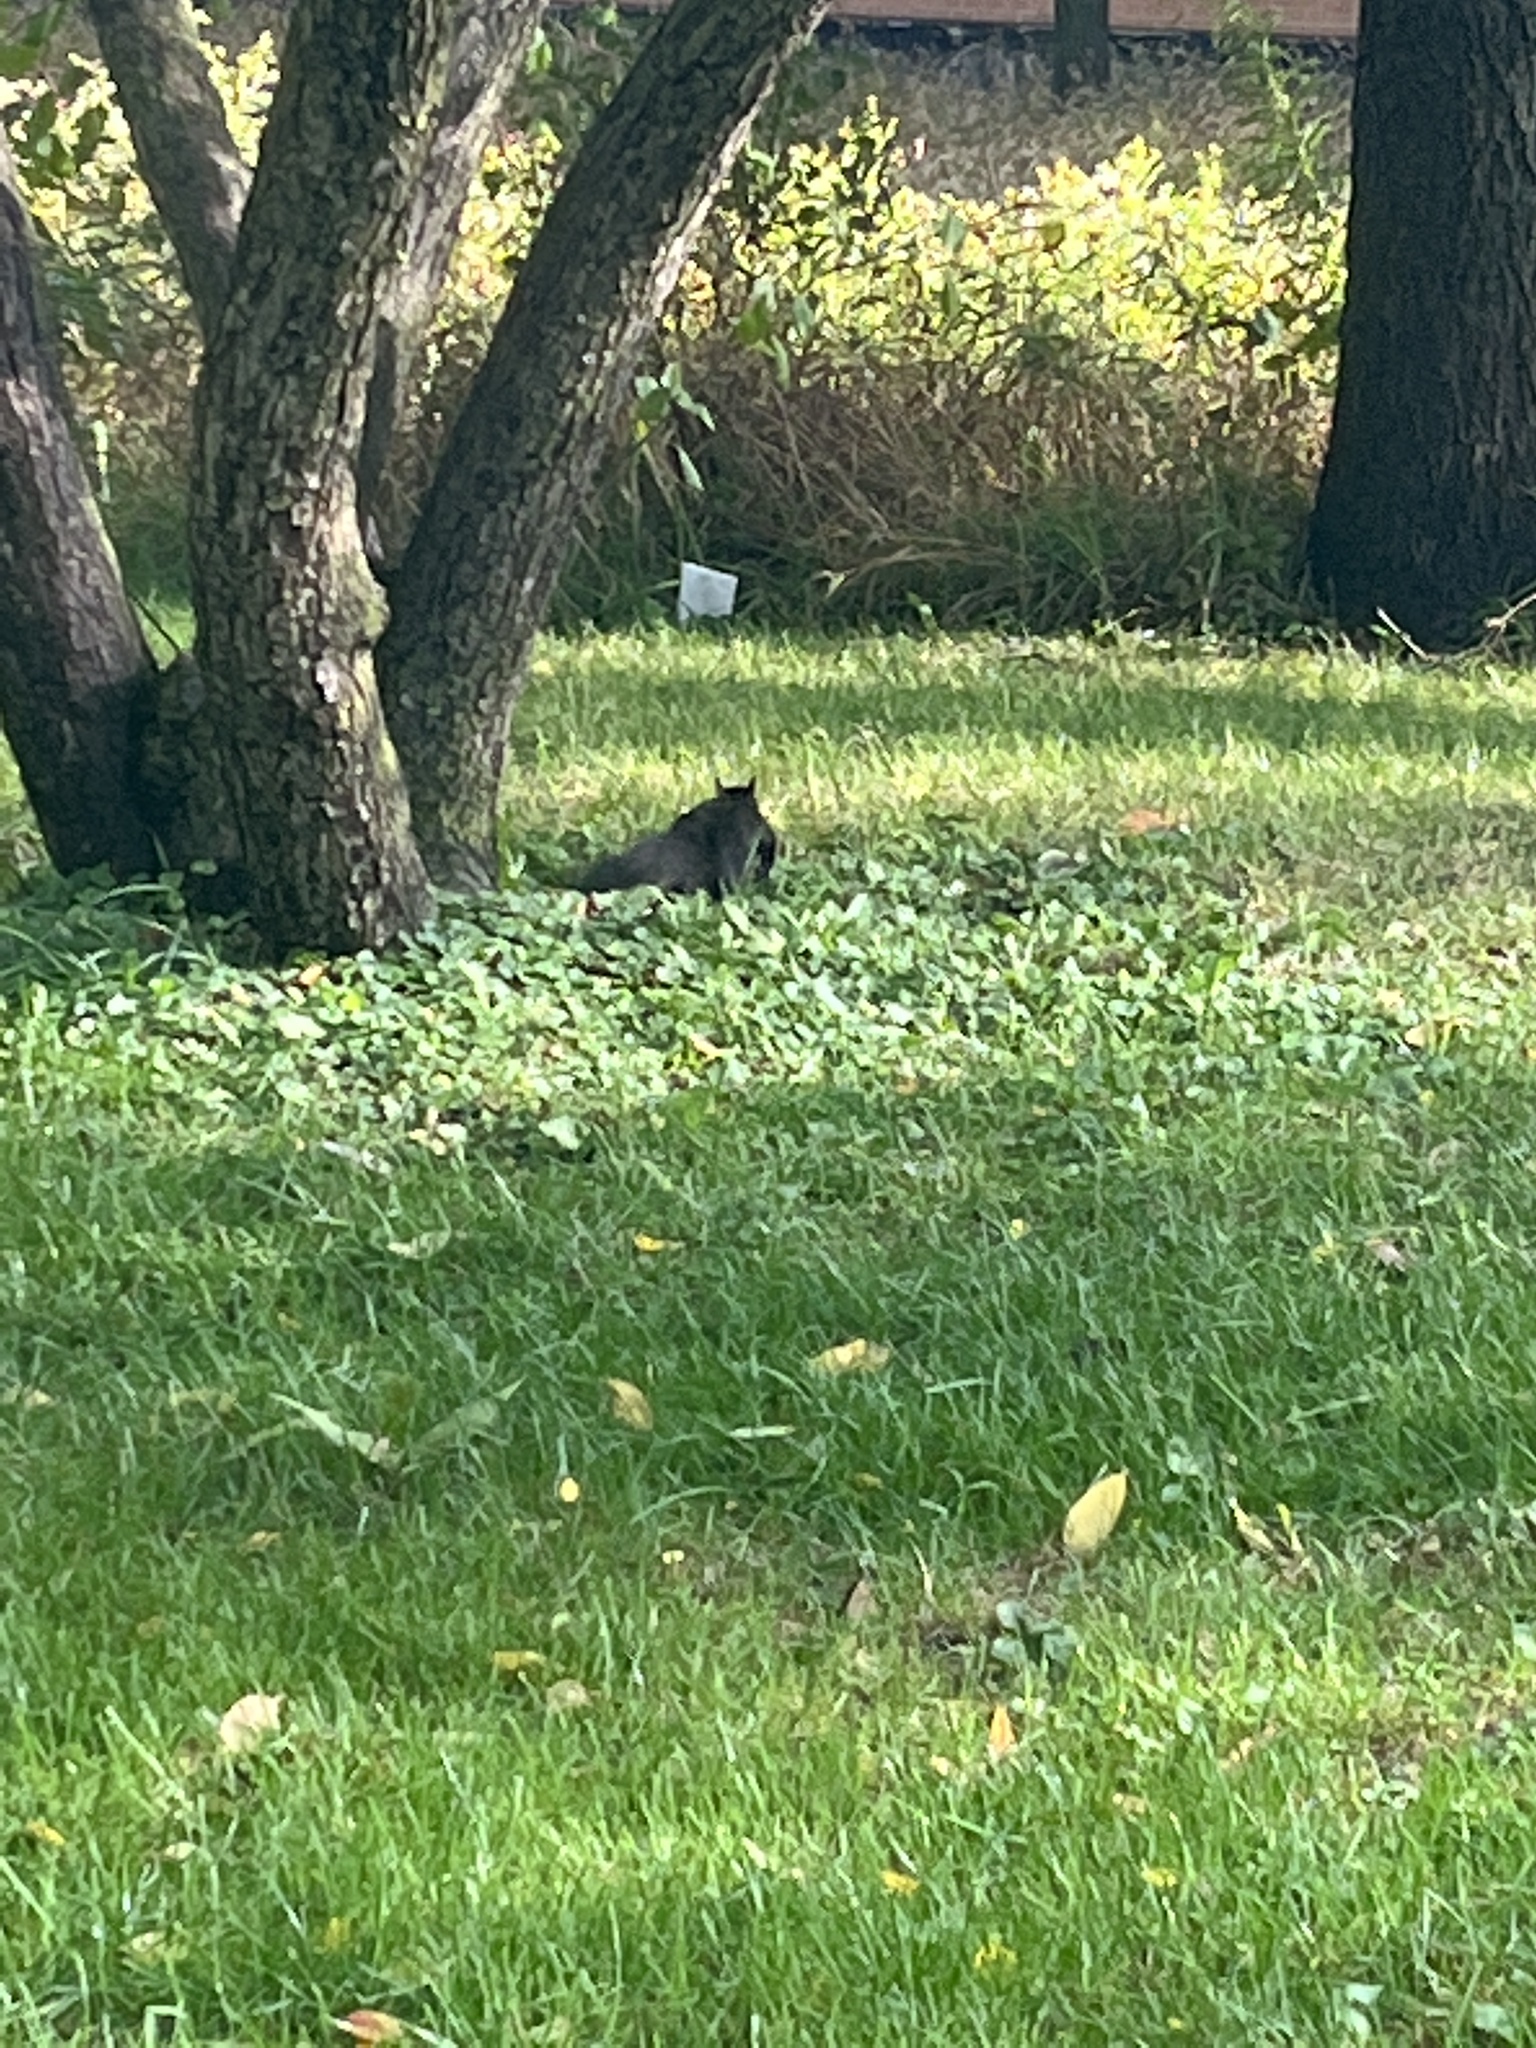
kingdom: Animalia
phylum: Chordata
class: Mammalia
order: Rodentia
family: Sciuridae
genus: Sciurus
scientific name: Sciurus carolinensis
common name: Eastern gray squirrel
